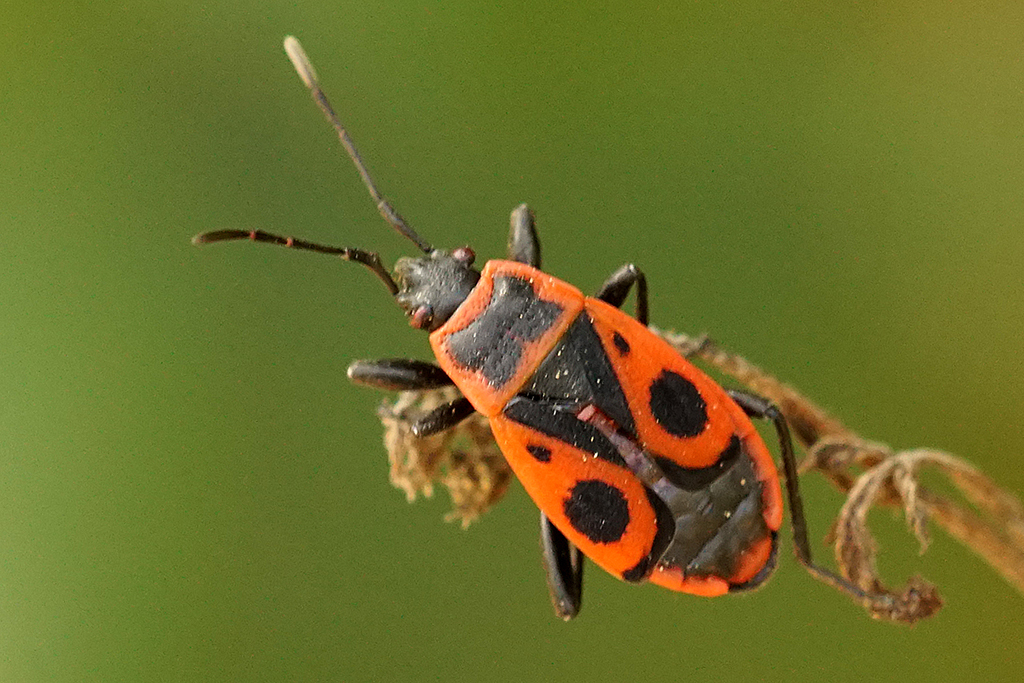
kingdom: Animalia
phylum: Arthropoda
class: Insecta
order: Hemiptera
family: Pyrrhocoridae
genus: Pyrrhocoris
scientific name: Pyrrhocoris apterus
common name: Firebug
